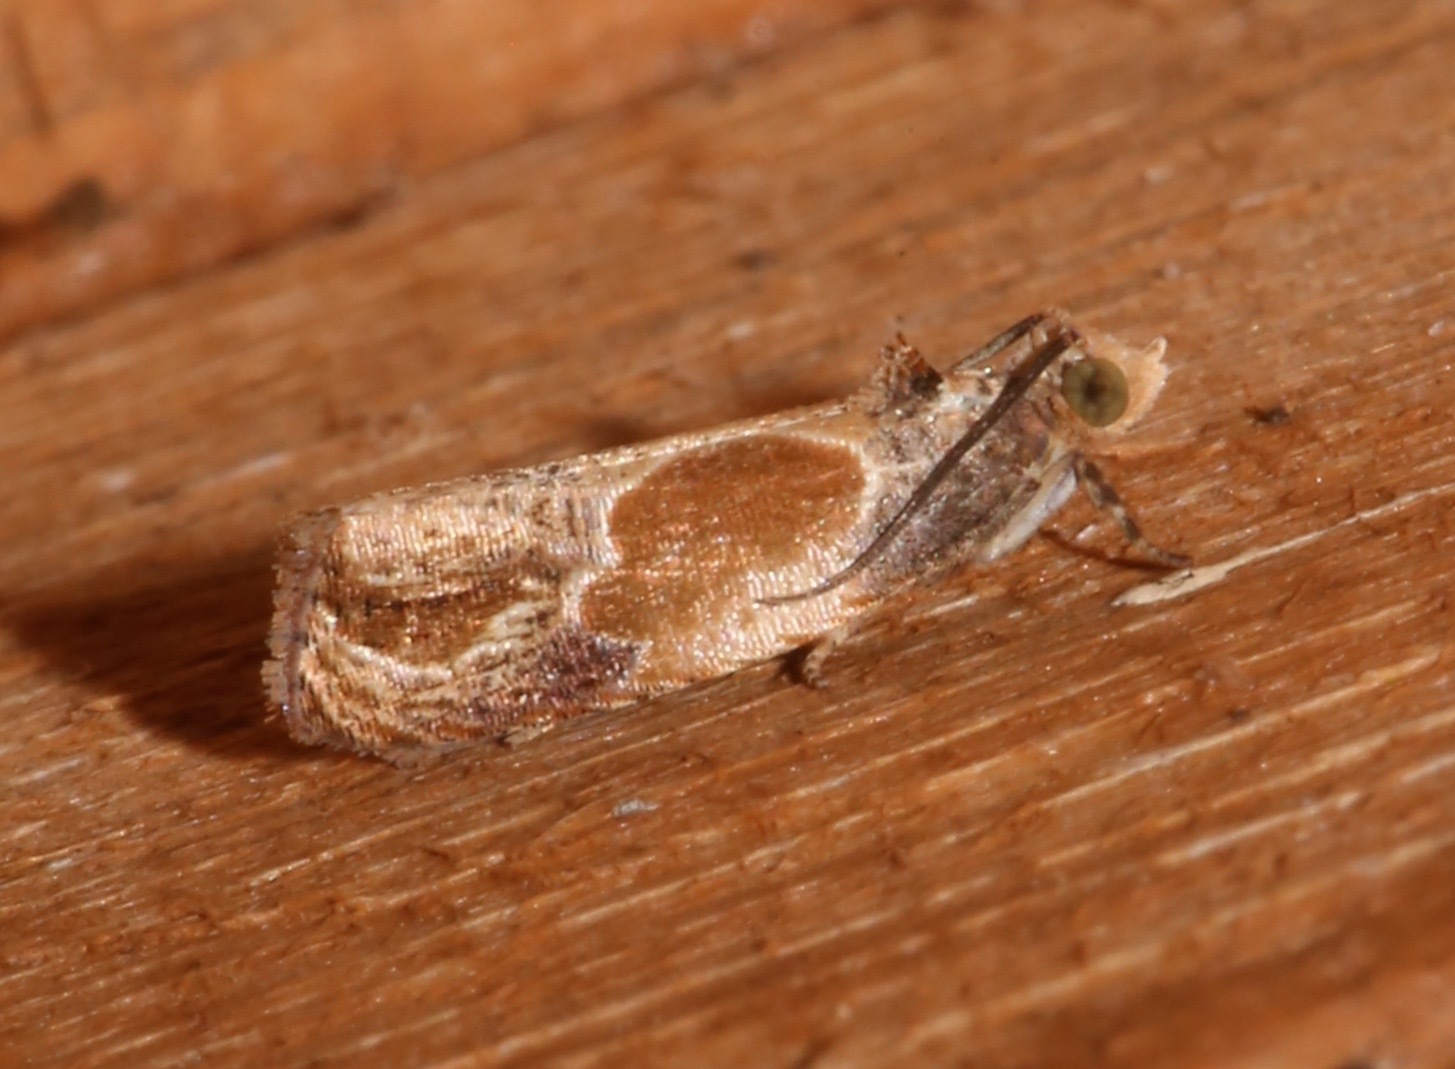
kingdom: Animalia
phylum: Arthropoda
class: Insecta
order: Lepidoptera
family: Tortricidae
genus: Eumarozia
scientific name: Eumarozia malachitana
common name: Sculptured moth
